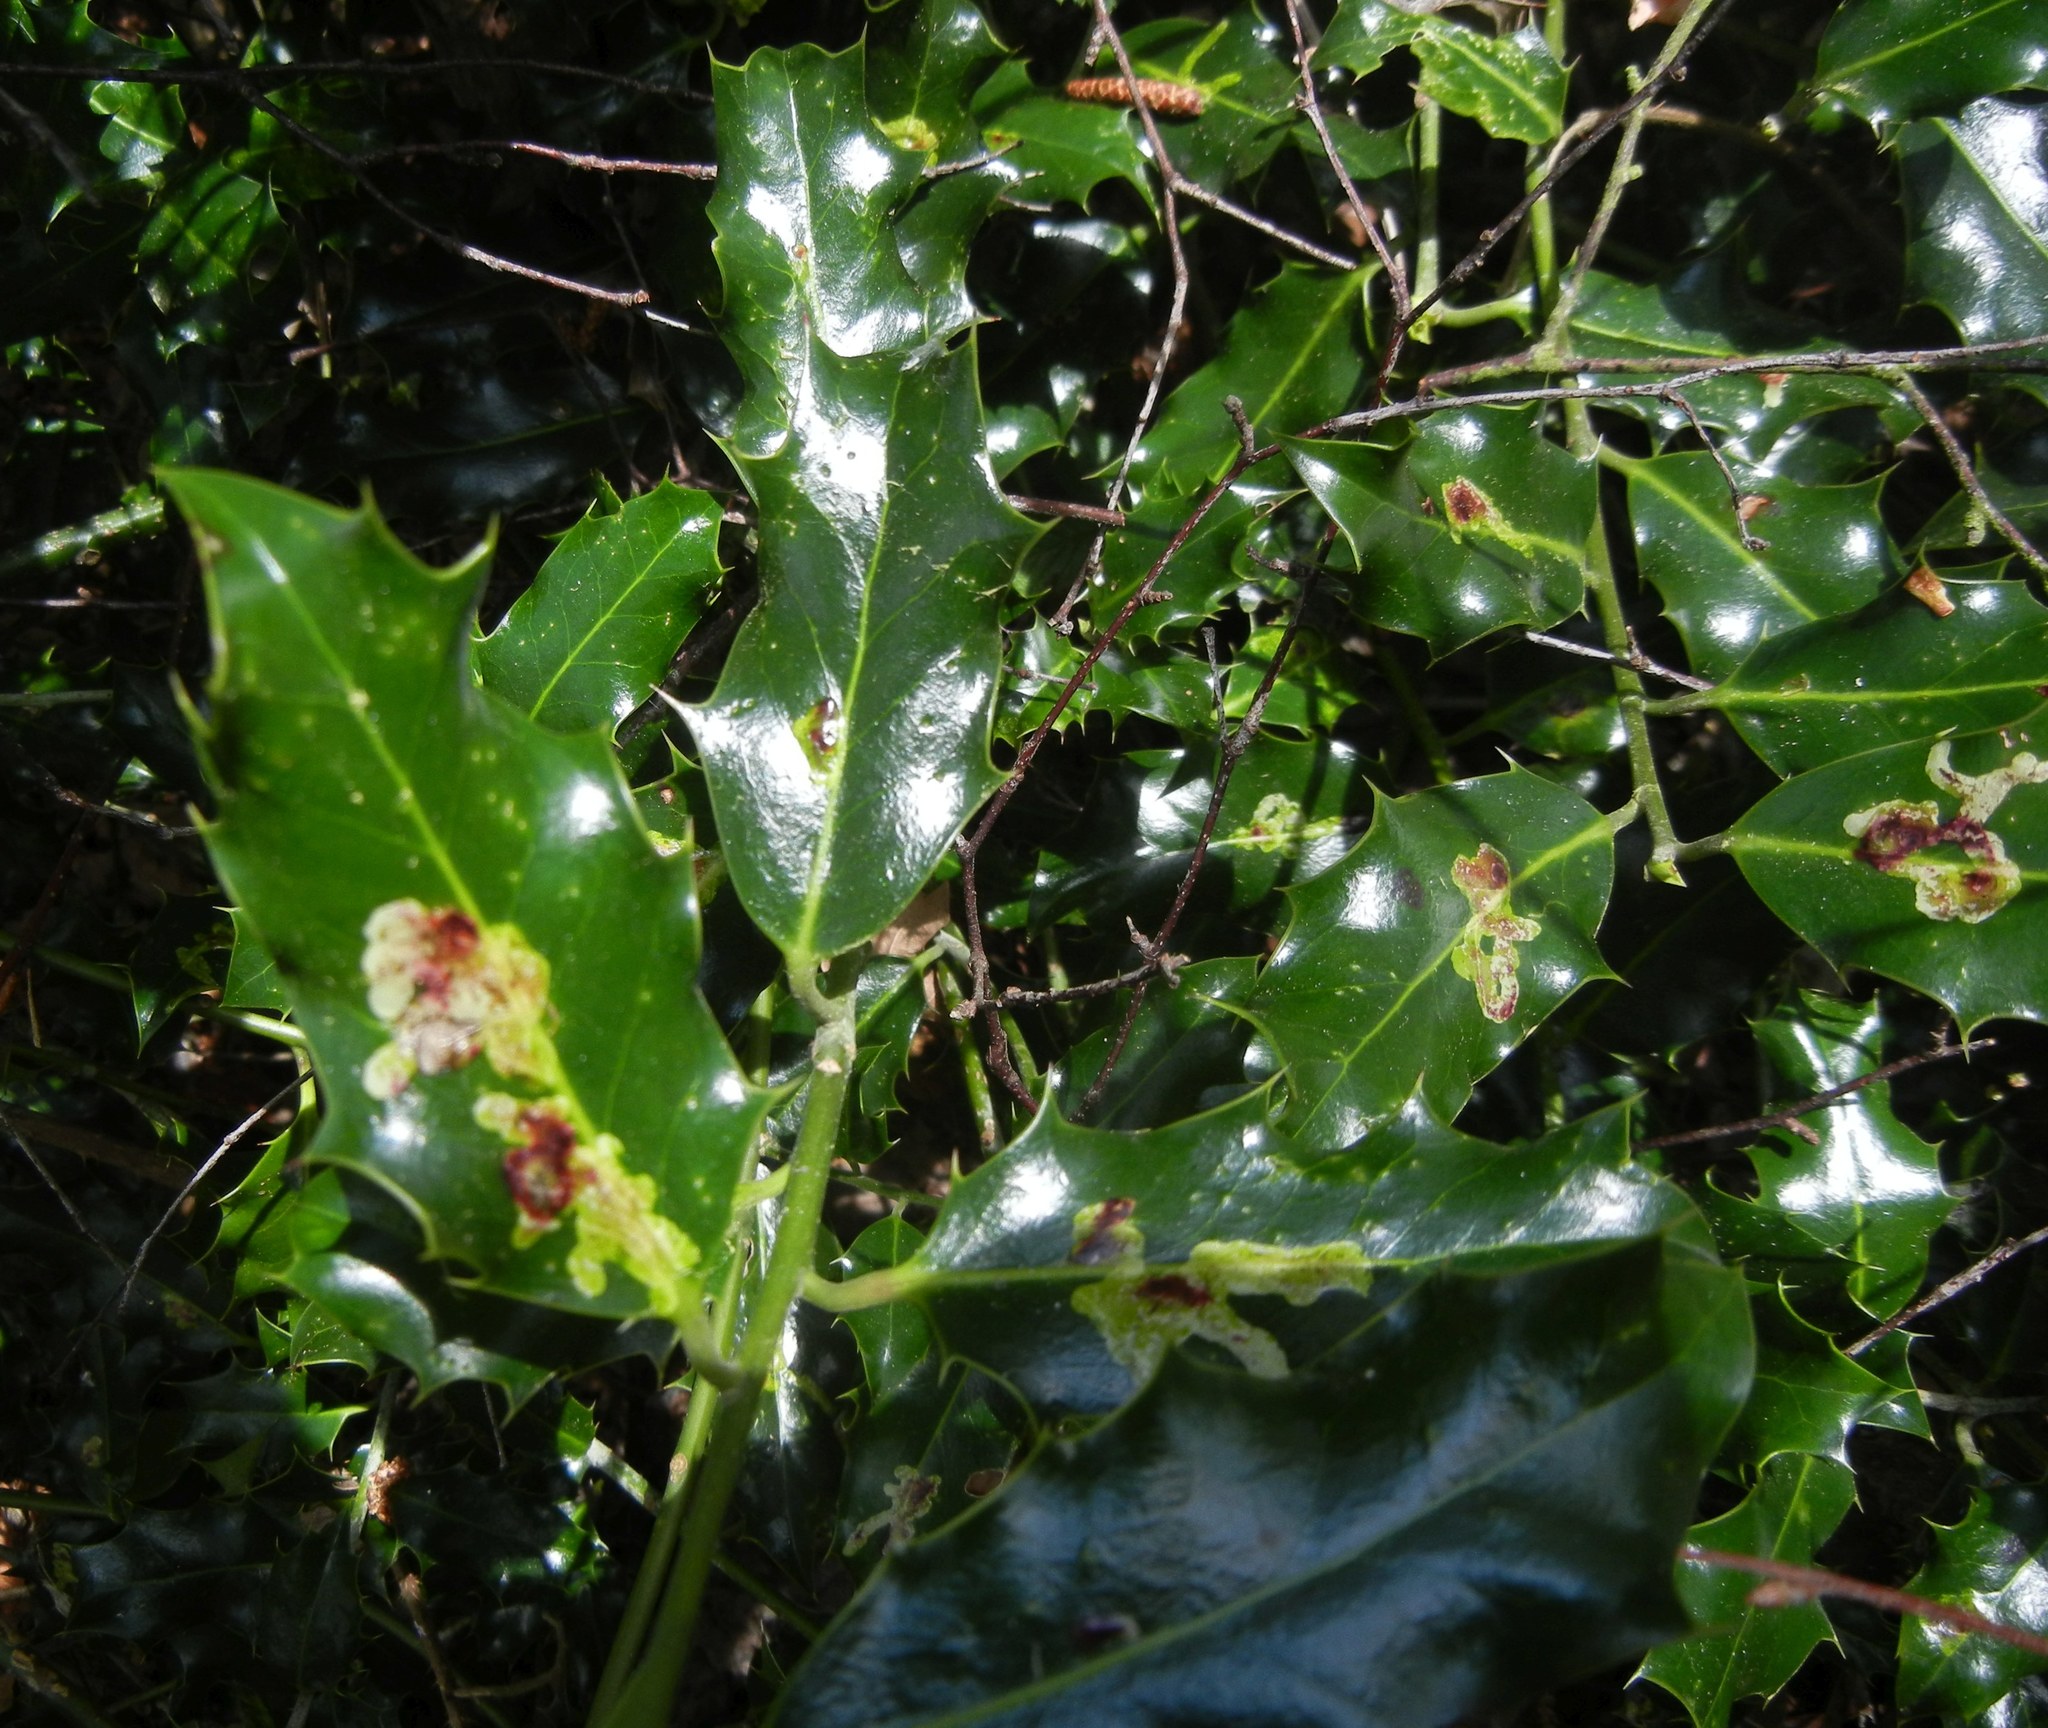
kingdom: Plantae
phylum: Tracheophyta
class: Magnoliopsida
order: Aquifoliales
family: Aquifoliaceae
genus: Ilex
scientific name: Ilex aquifolium
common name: English holly
